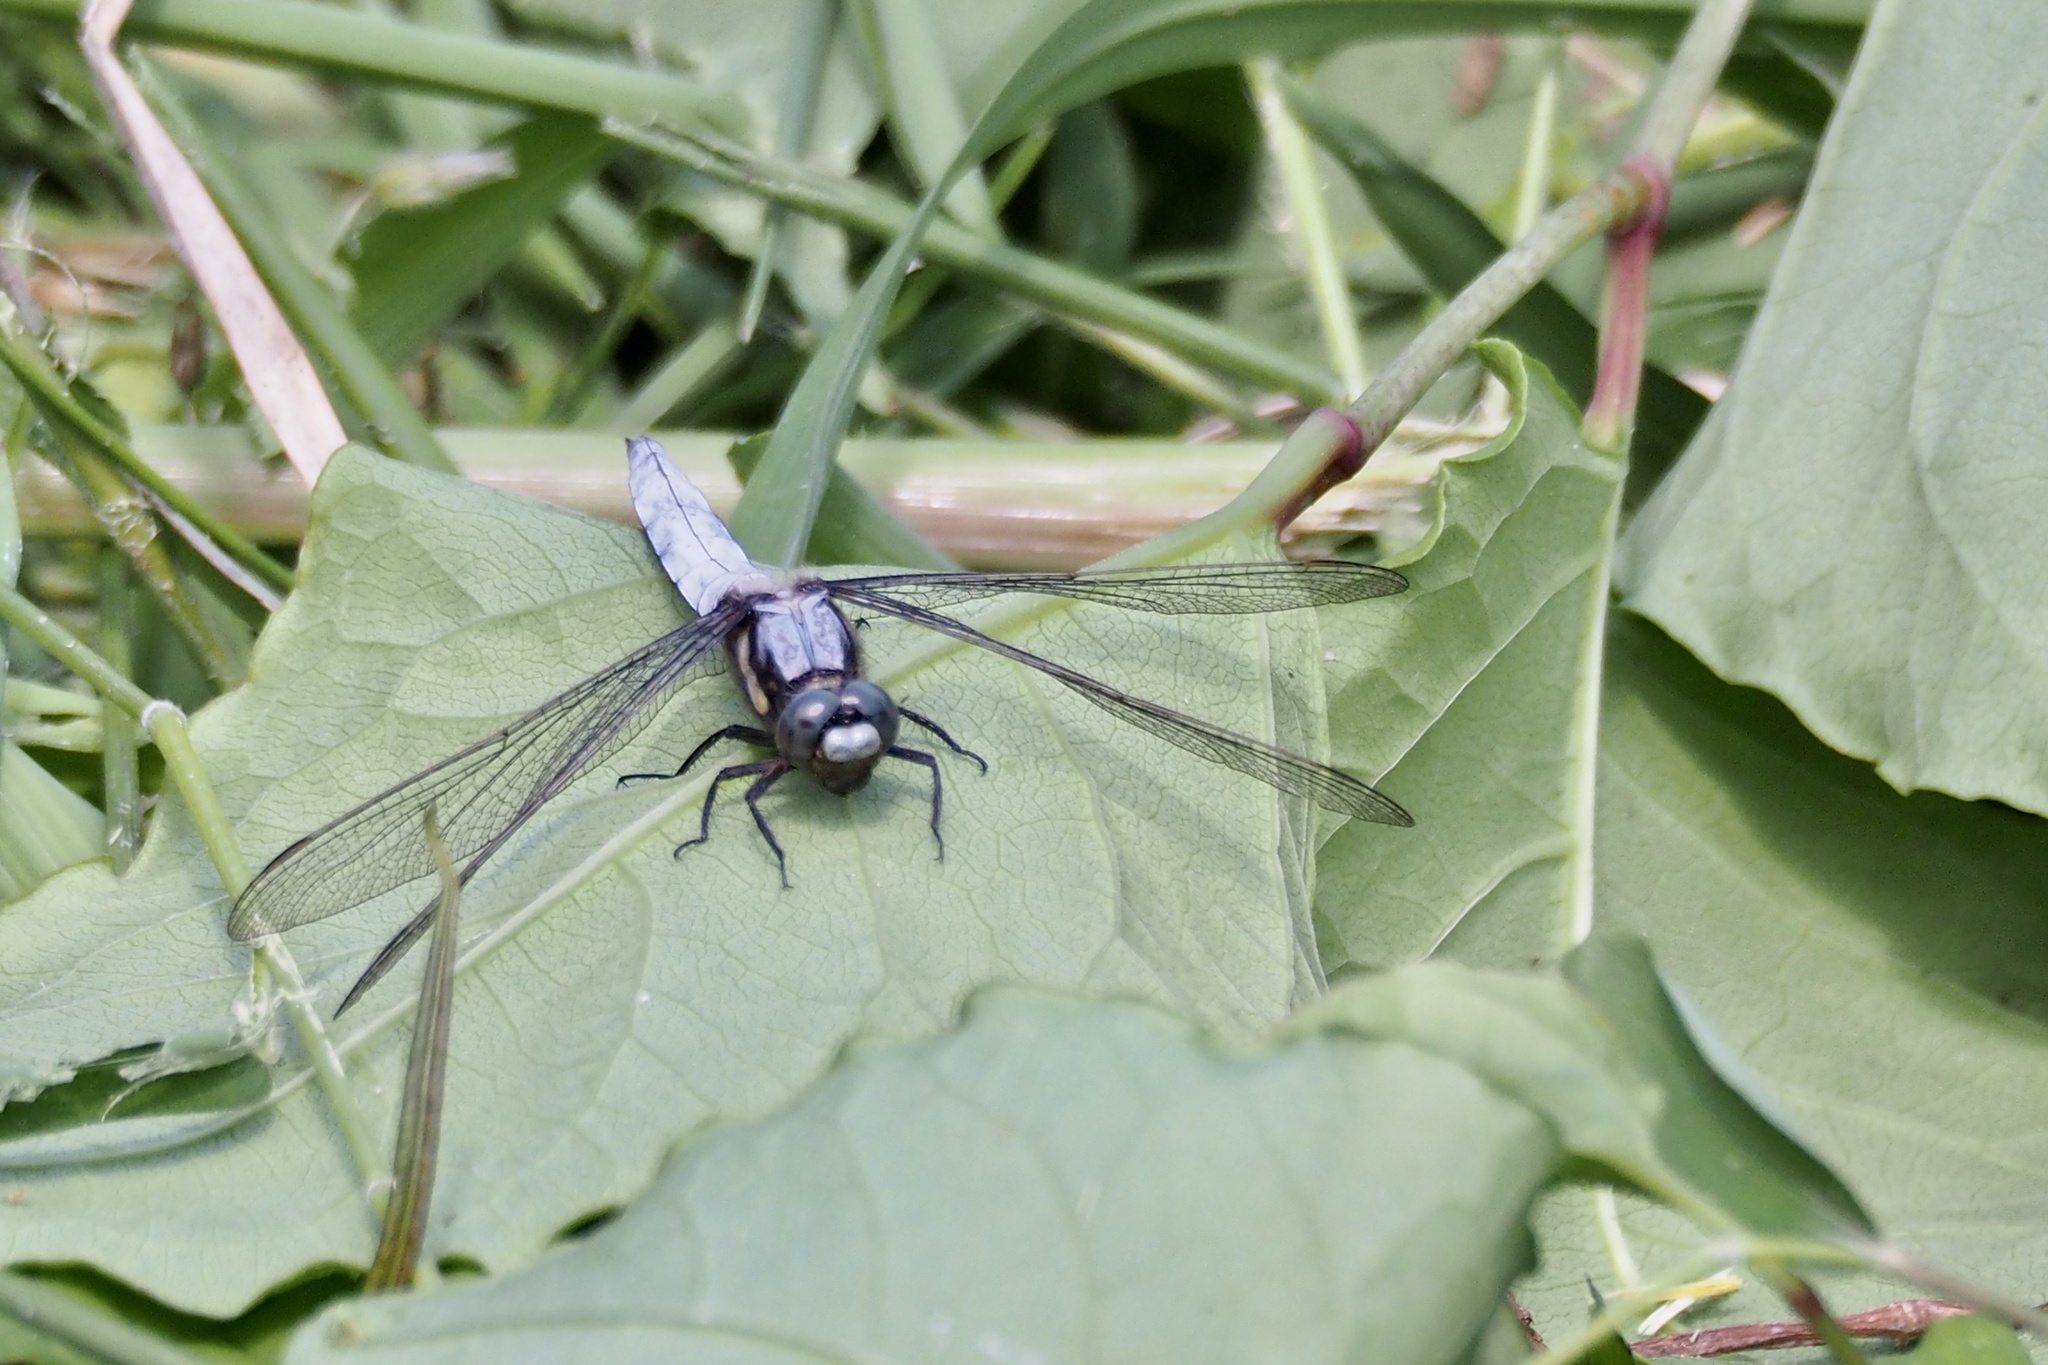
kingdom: Animalia
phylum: Arthropoda
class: Insecta
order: Odonata
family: Libellulidae
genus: Orthetrum
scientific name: Orthetrum japonicum
